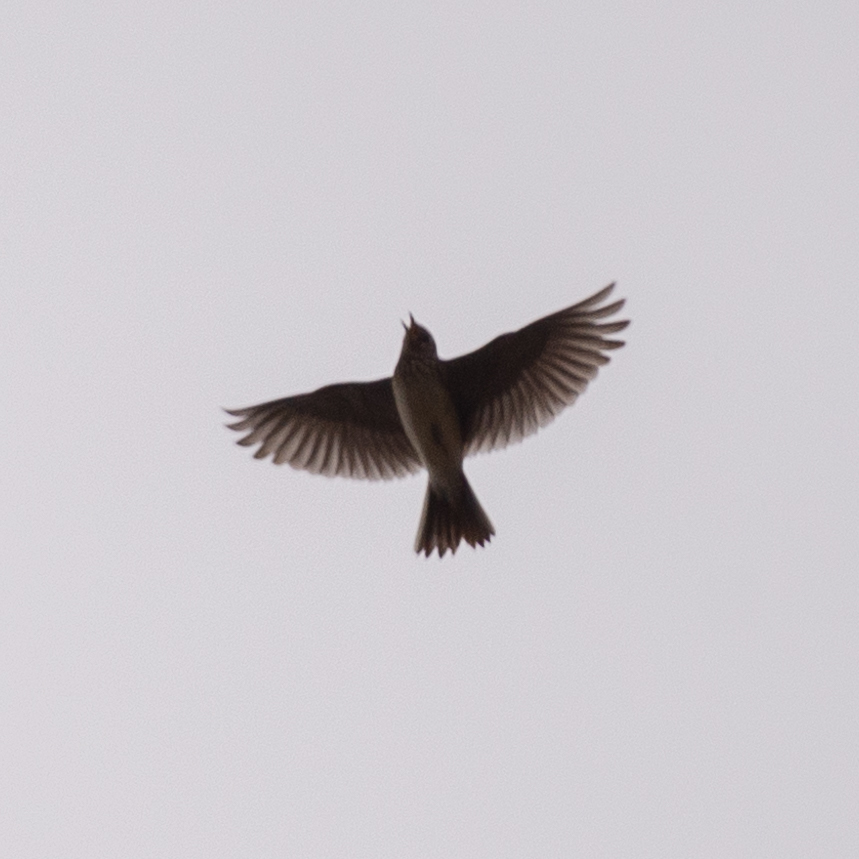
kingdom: Animalia
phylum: Chordata
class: Aves
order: Passeriformes
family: Alaudidae
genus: Alauda
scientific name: Alauda arvensis
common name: Eurasian skylark
